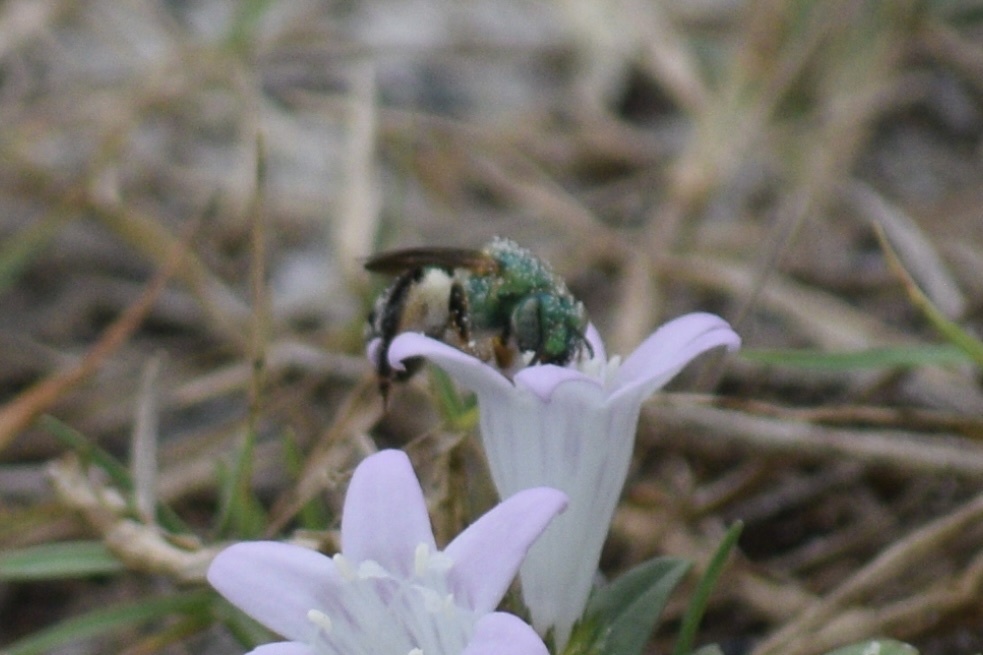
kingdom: Animalia
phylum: Arthropoda
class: Insecta
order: Hymenoptera
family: Halictidae
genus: Agapostemon
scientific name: Agapostemon splendens
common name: Brown-winged striped sweat bee
